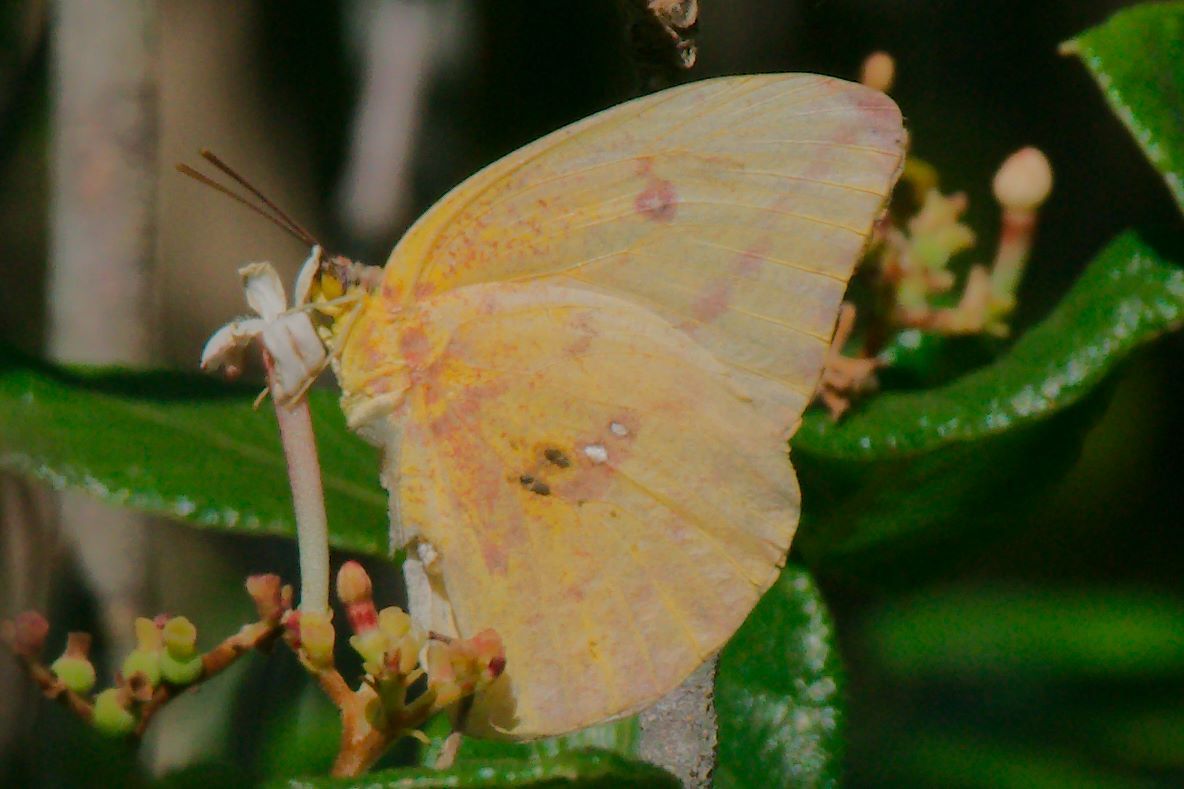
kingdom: Animalia
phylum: Arthropoda
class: Insecta
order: Lepidoptera
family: Pieridae
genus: Phoebis
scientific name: Phoebis agarithe
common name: Large orange sulphur
